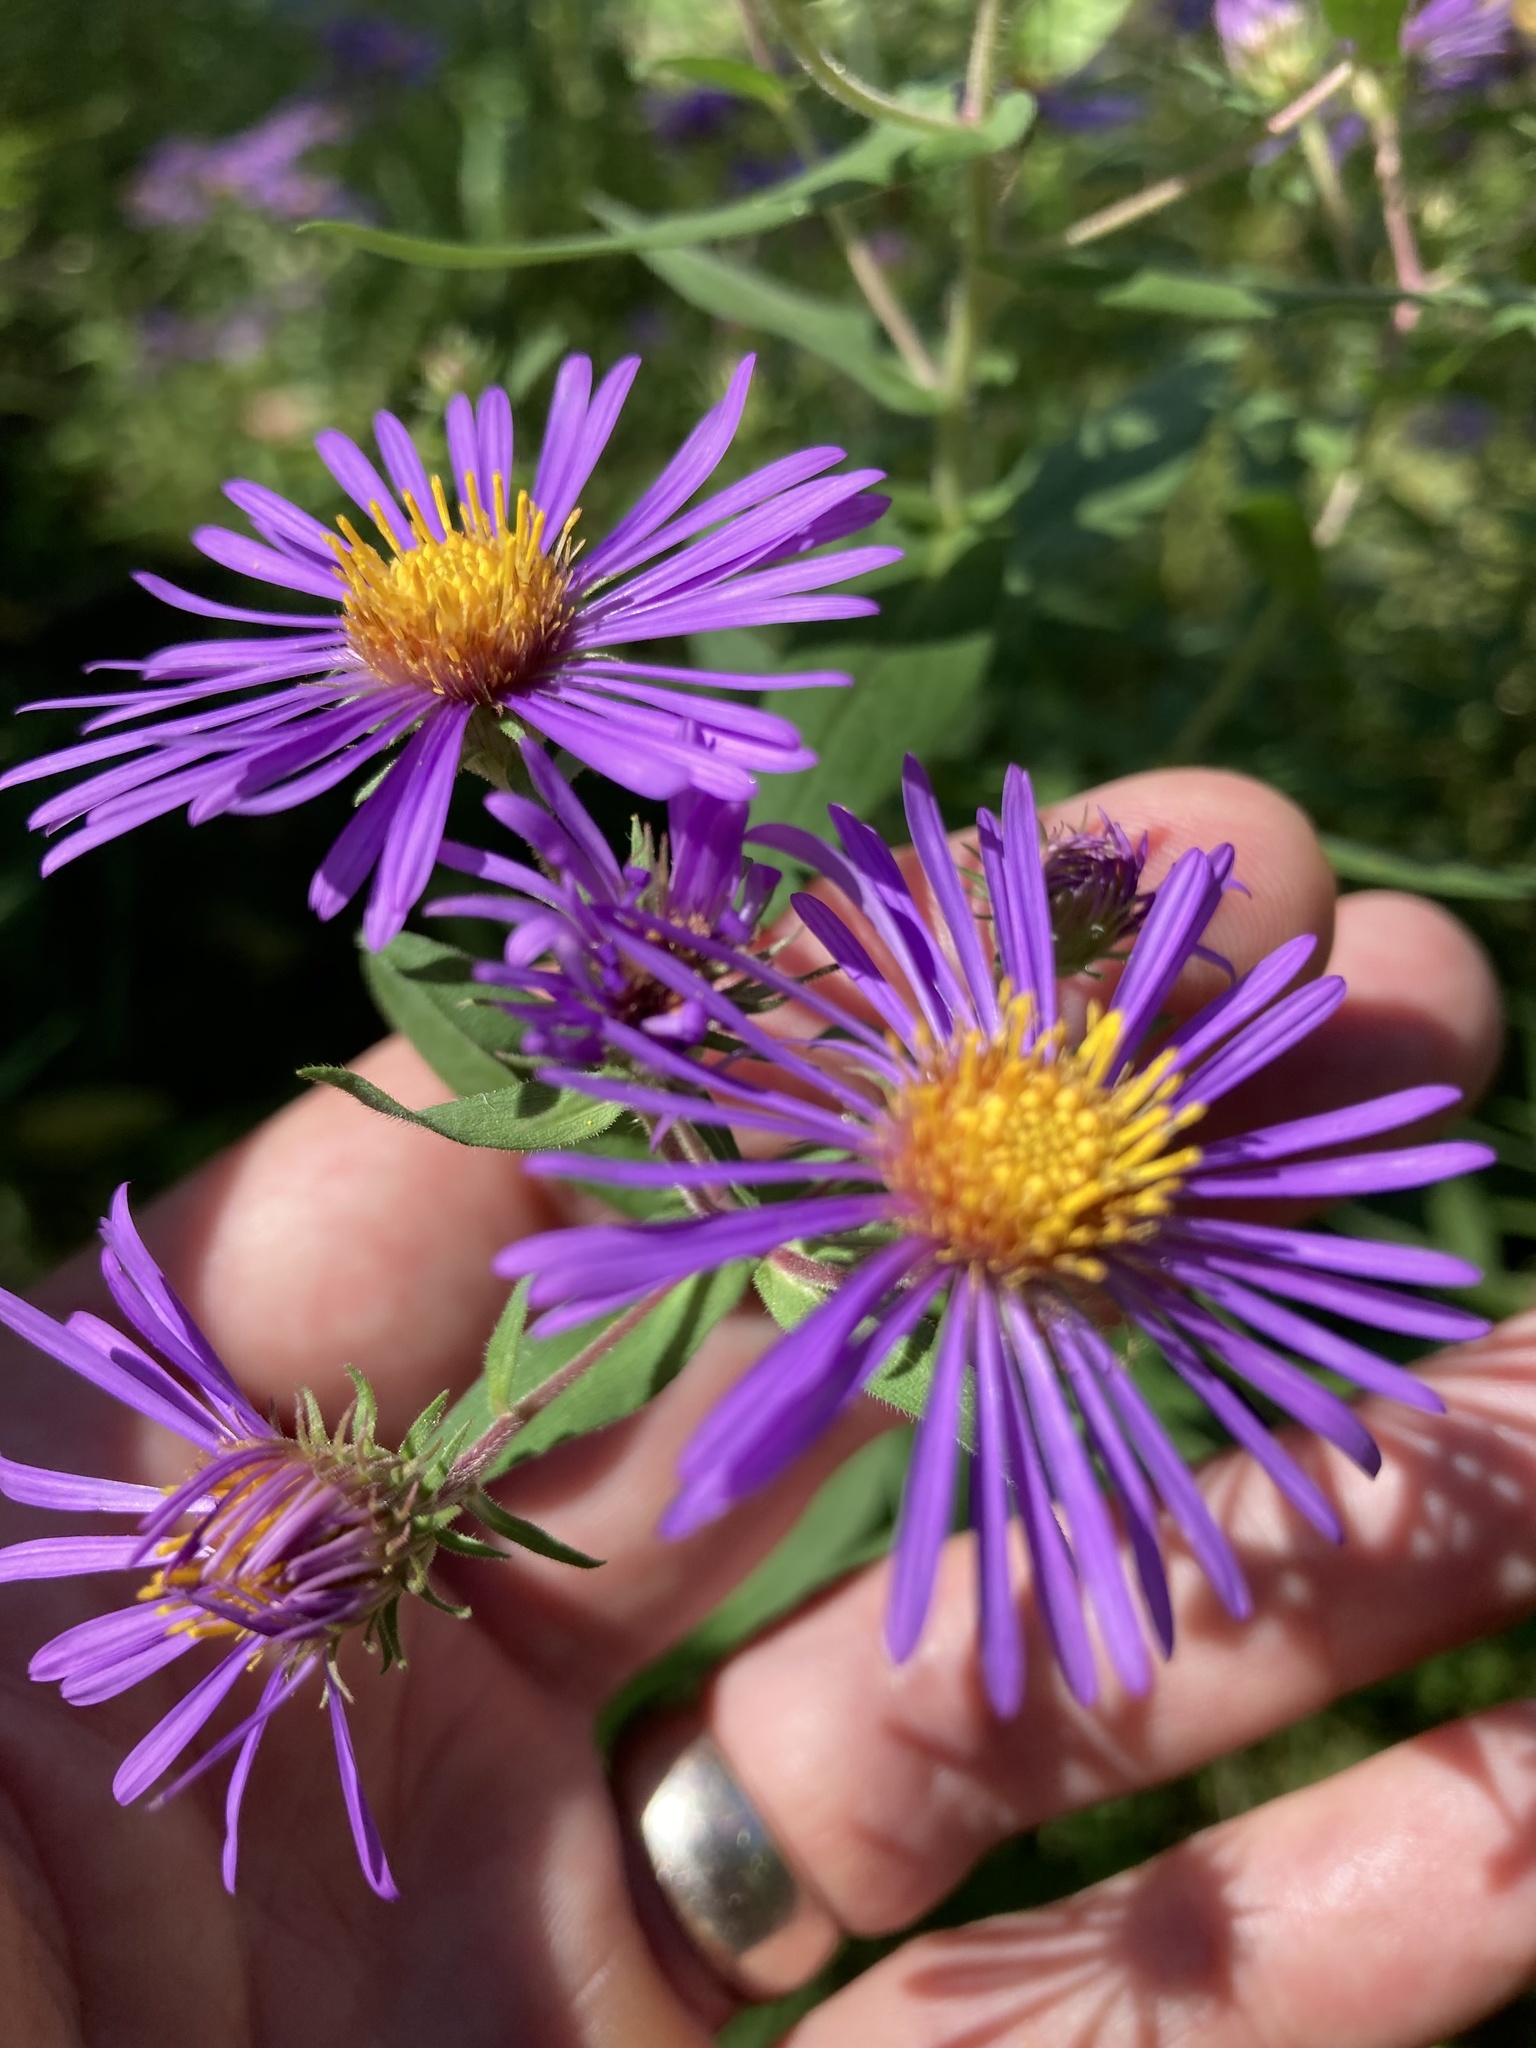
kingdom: Plantae
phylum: Tracheophyta
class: Magnoliopsida
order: Asterales
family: Asteraceae
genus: Symphyotrichum
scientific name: Symphyotrichum novae-angliae
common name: Michaelmas daisy
